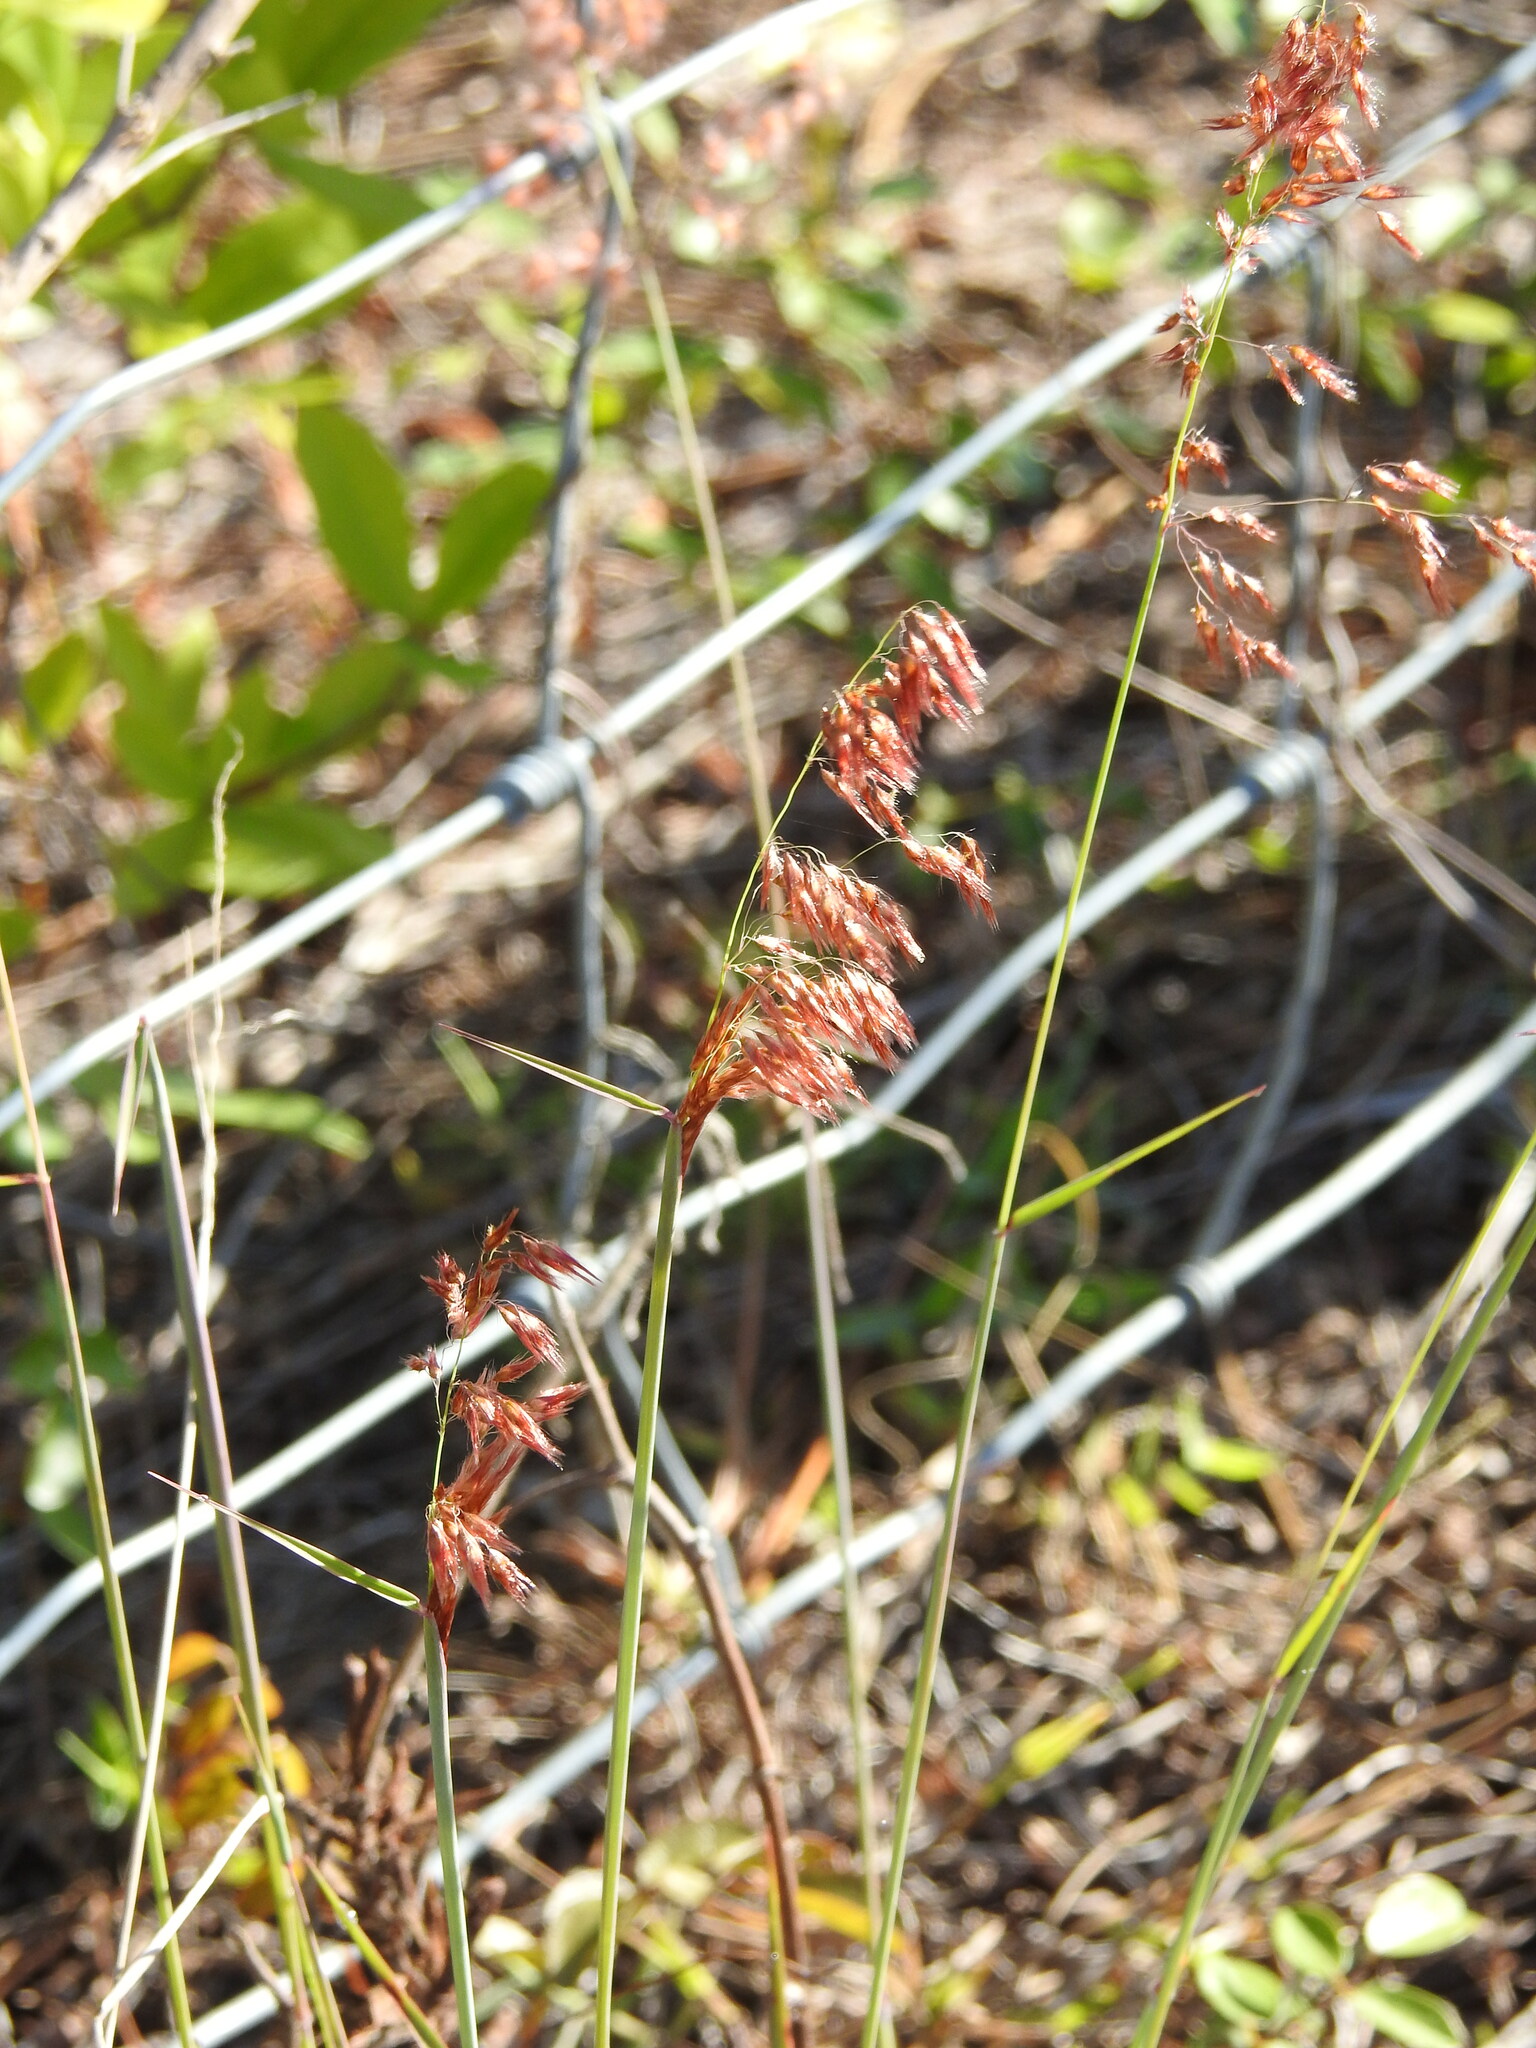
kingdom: Plantae
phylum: Tracheophyta
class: Liliopsida
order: Poales
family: Poaceae
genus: Melinis
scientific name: Melinis repens
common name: Rose natal grass
